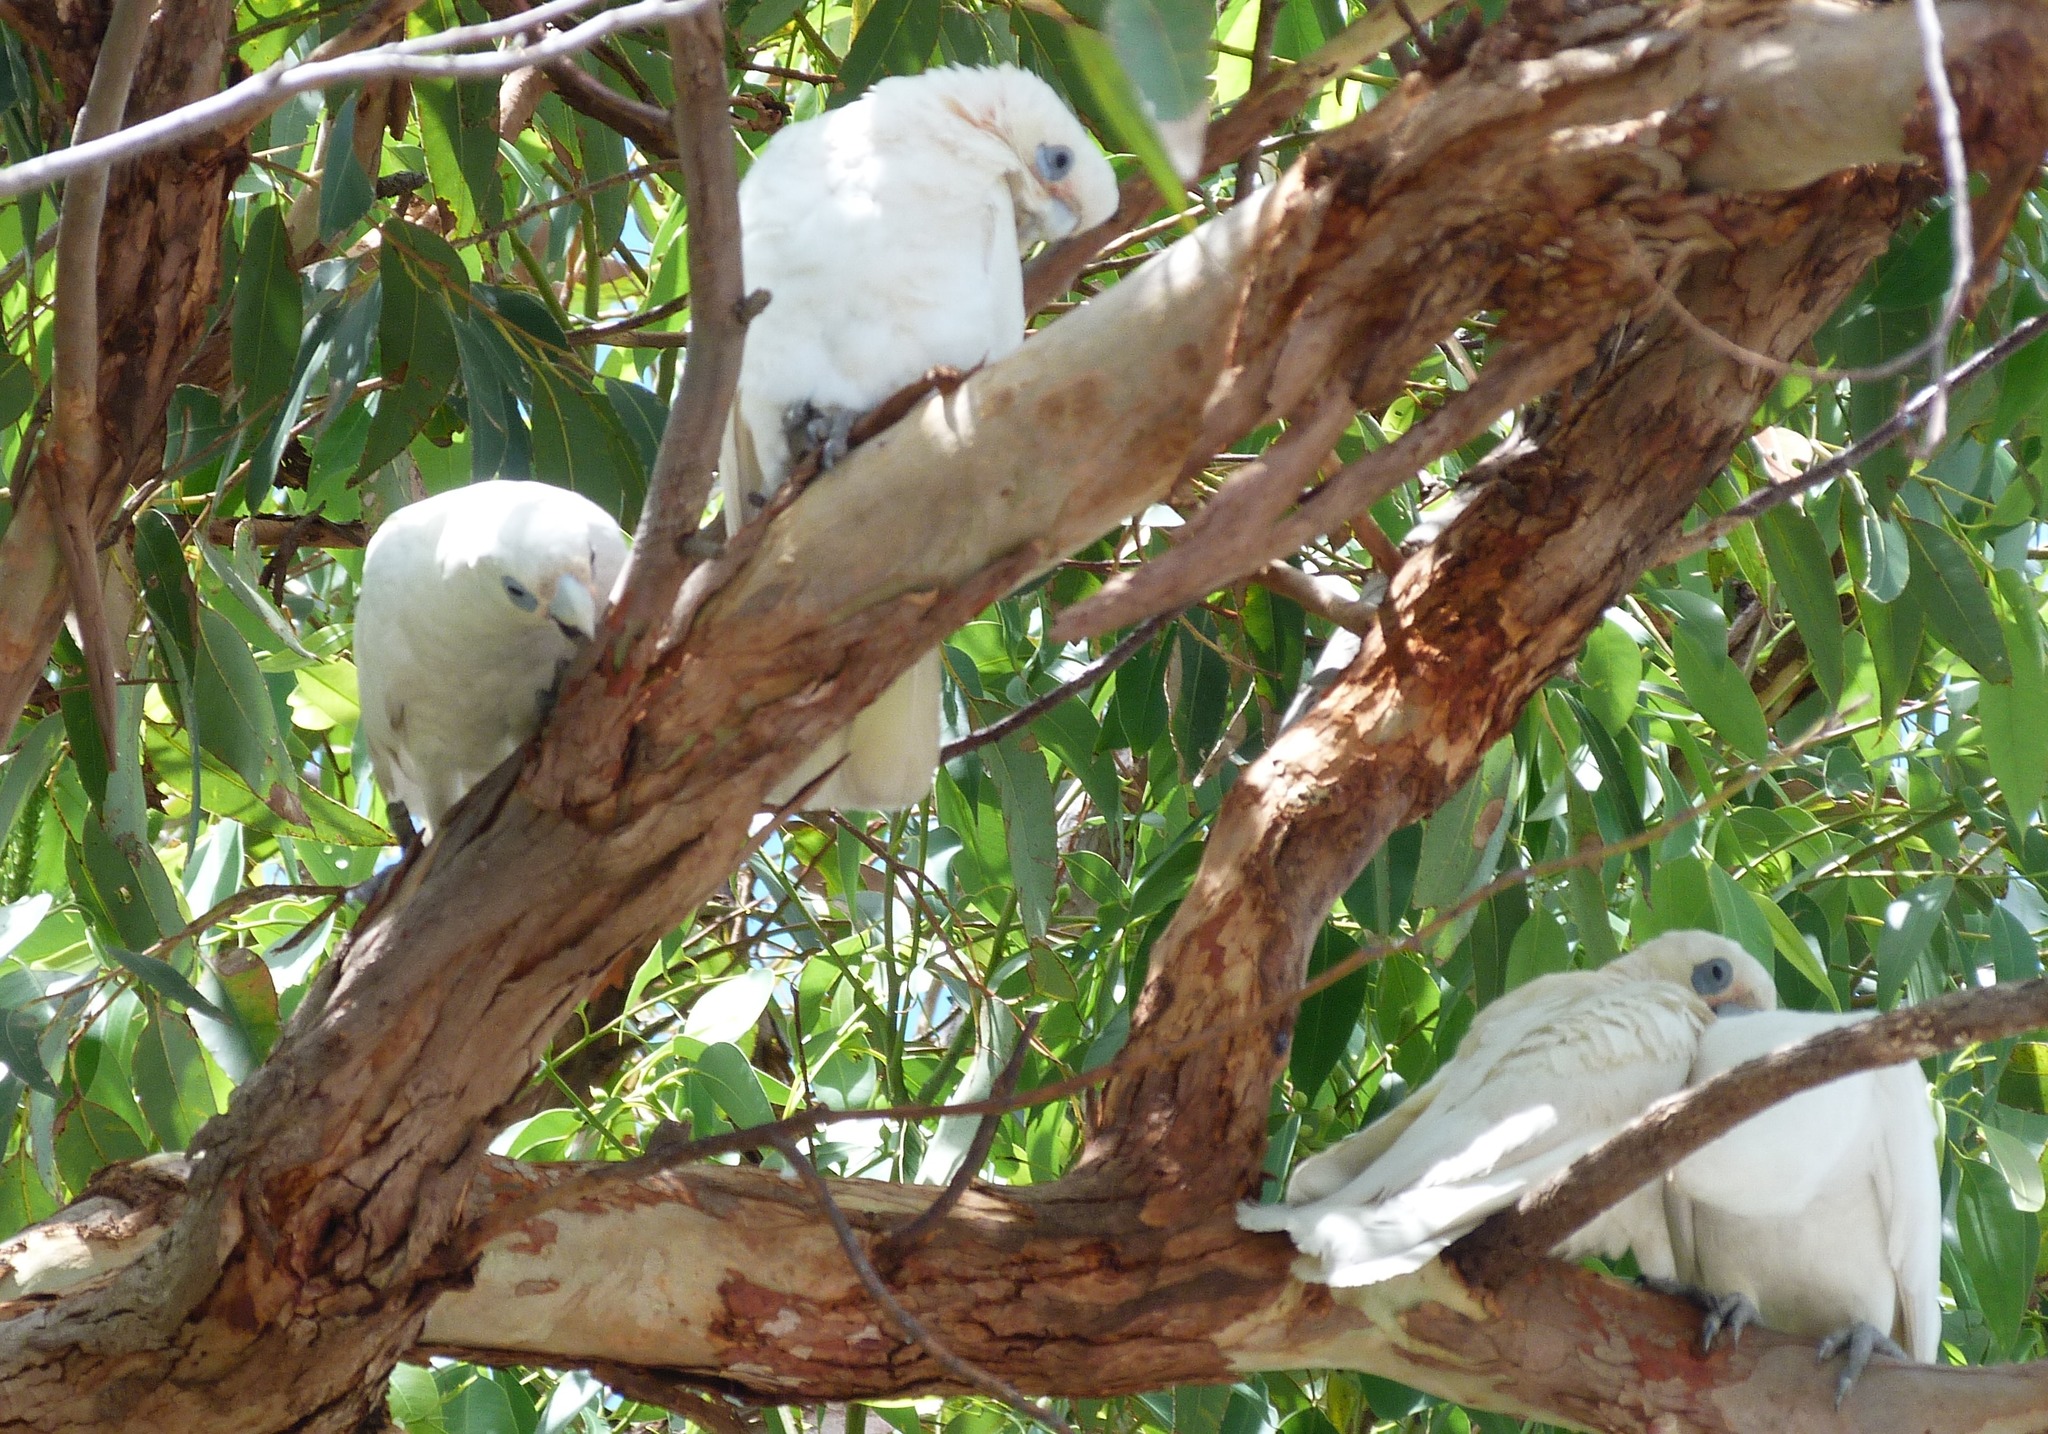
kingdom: Animalia
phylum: Chordata
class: Aves
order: Psittaciformes
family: Psittacidae
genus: Cacatua
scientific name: Cacatua sanguinea
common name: Little corella
